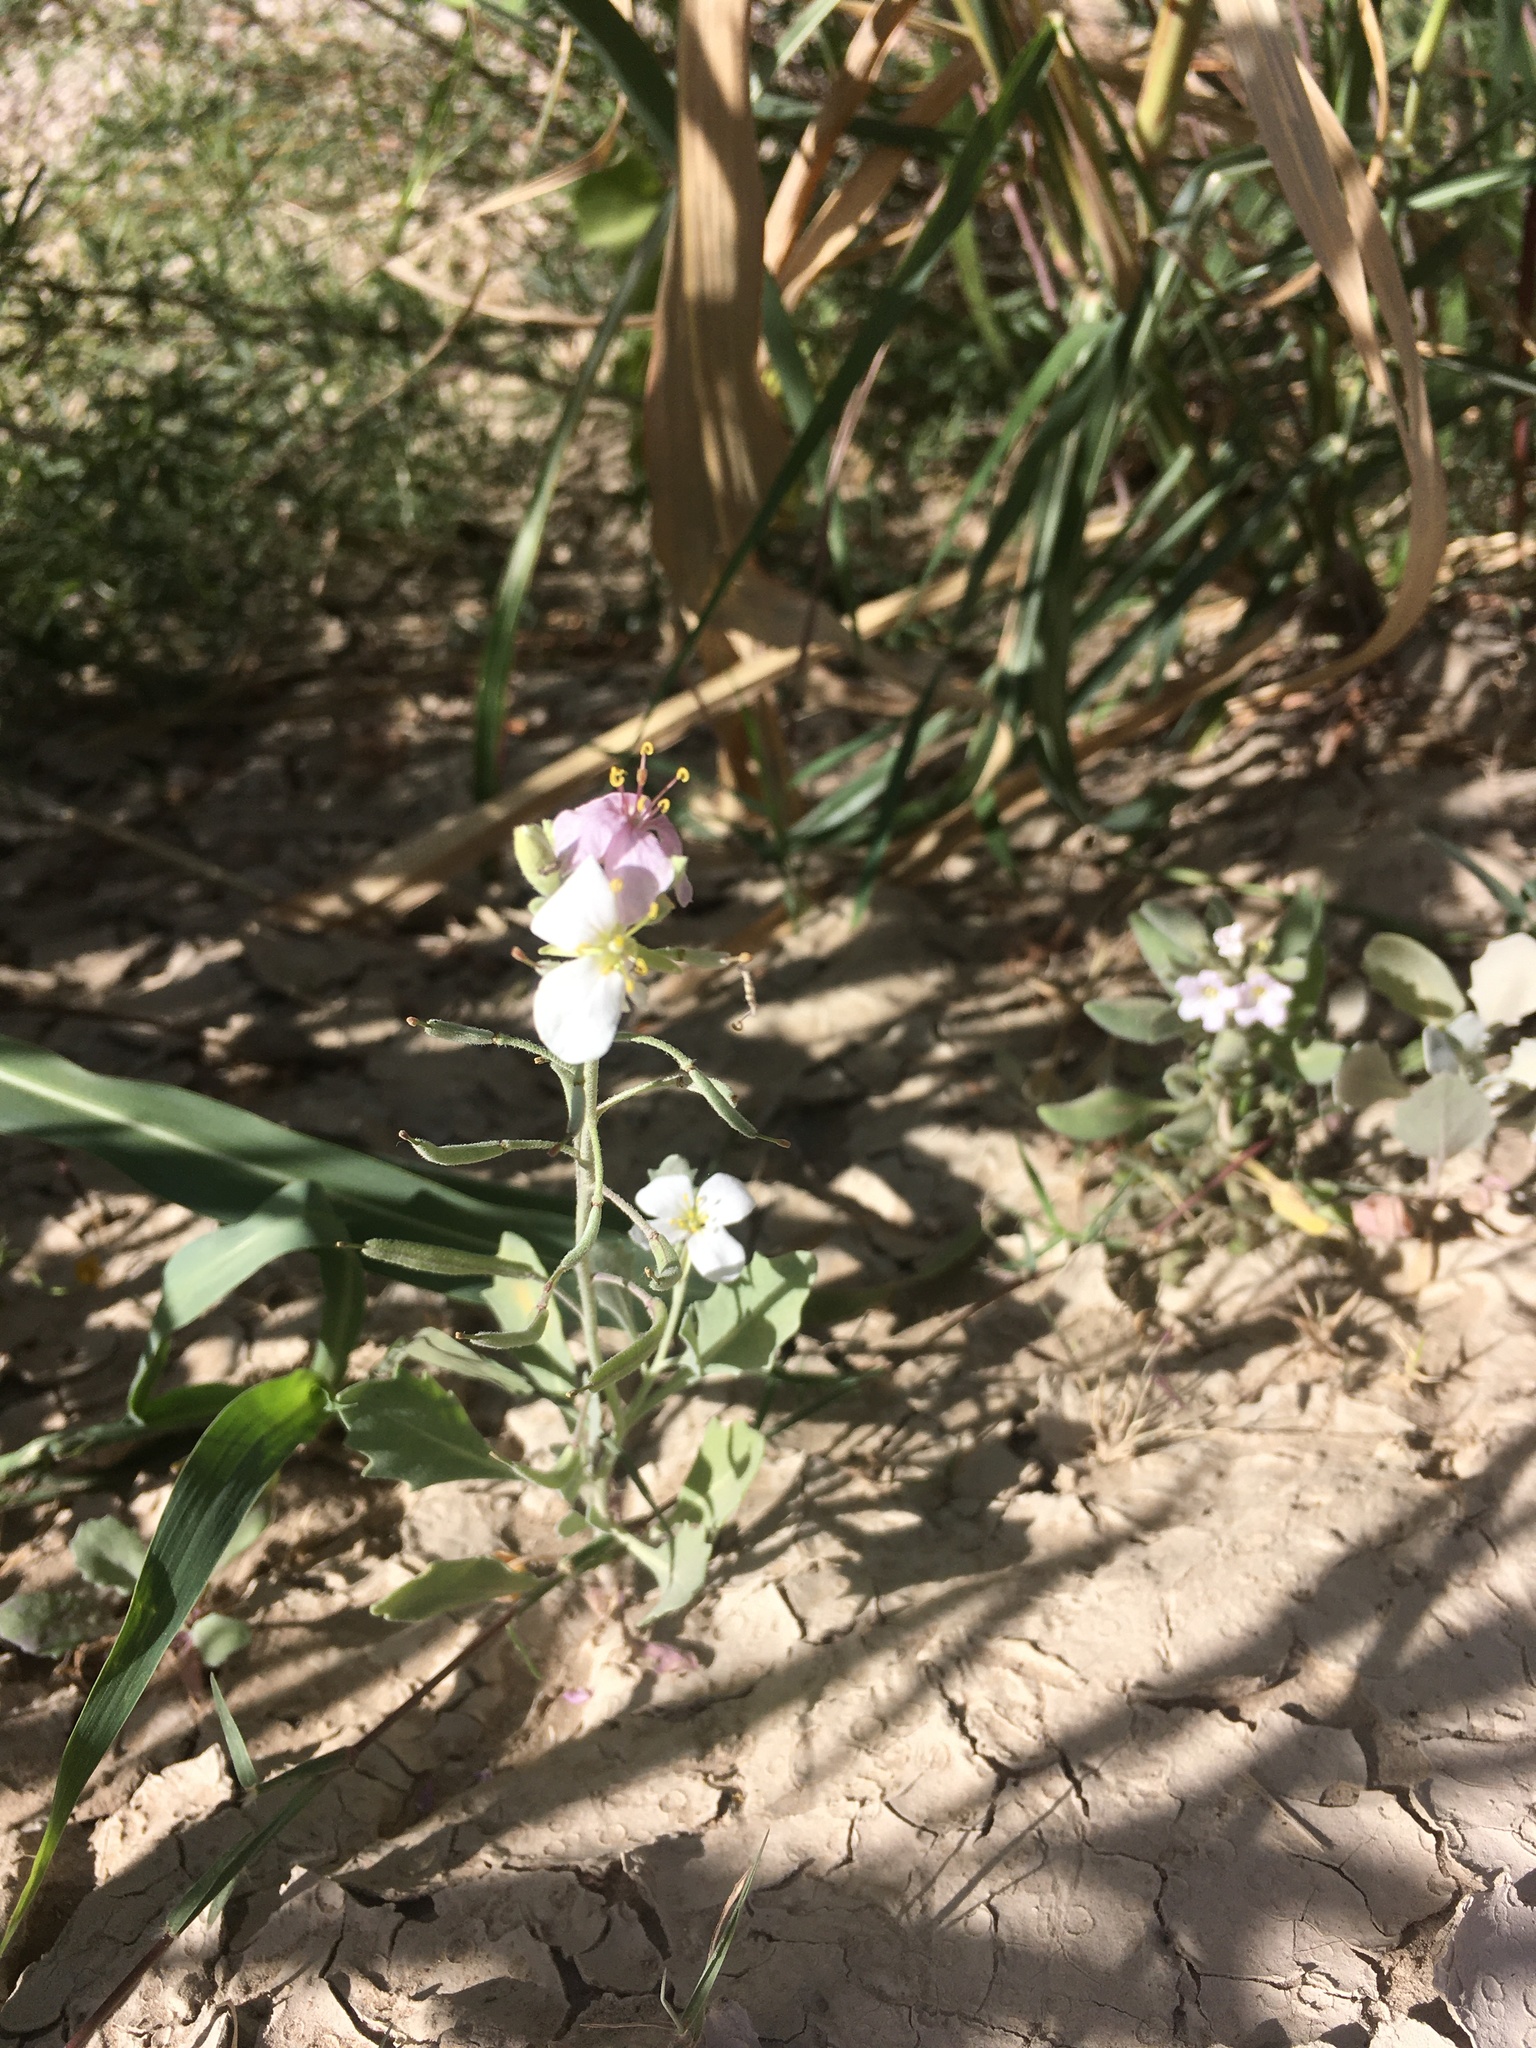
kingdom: Plantae
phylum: Tracheophyta
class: Magnoliopsida
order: Brassicales
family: Brassicaceae
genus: Nerisyrenia
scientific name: Nerisyrenia camporum
